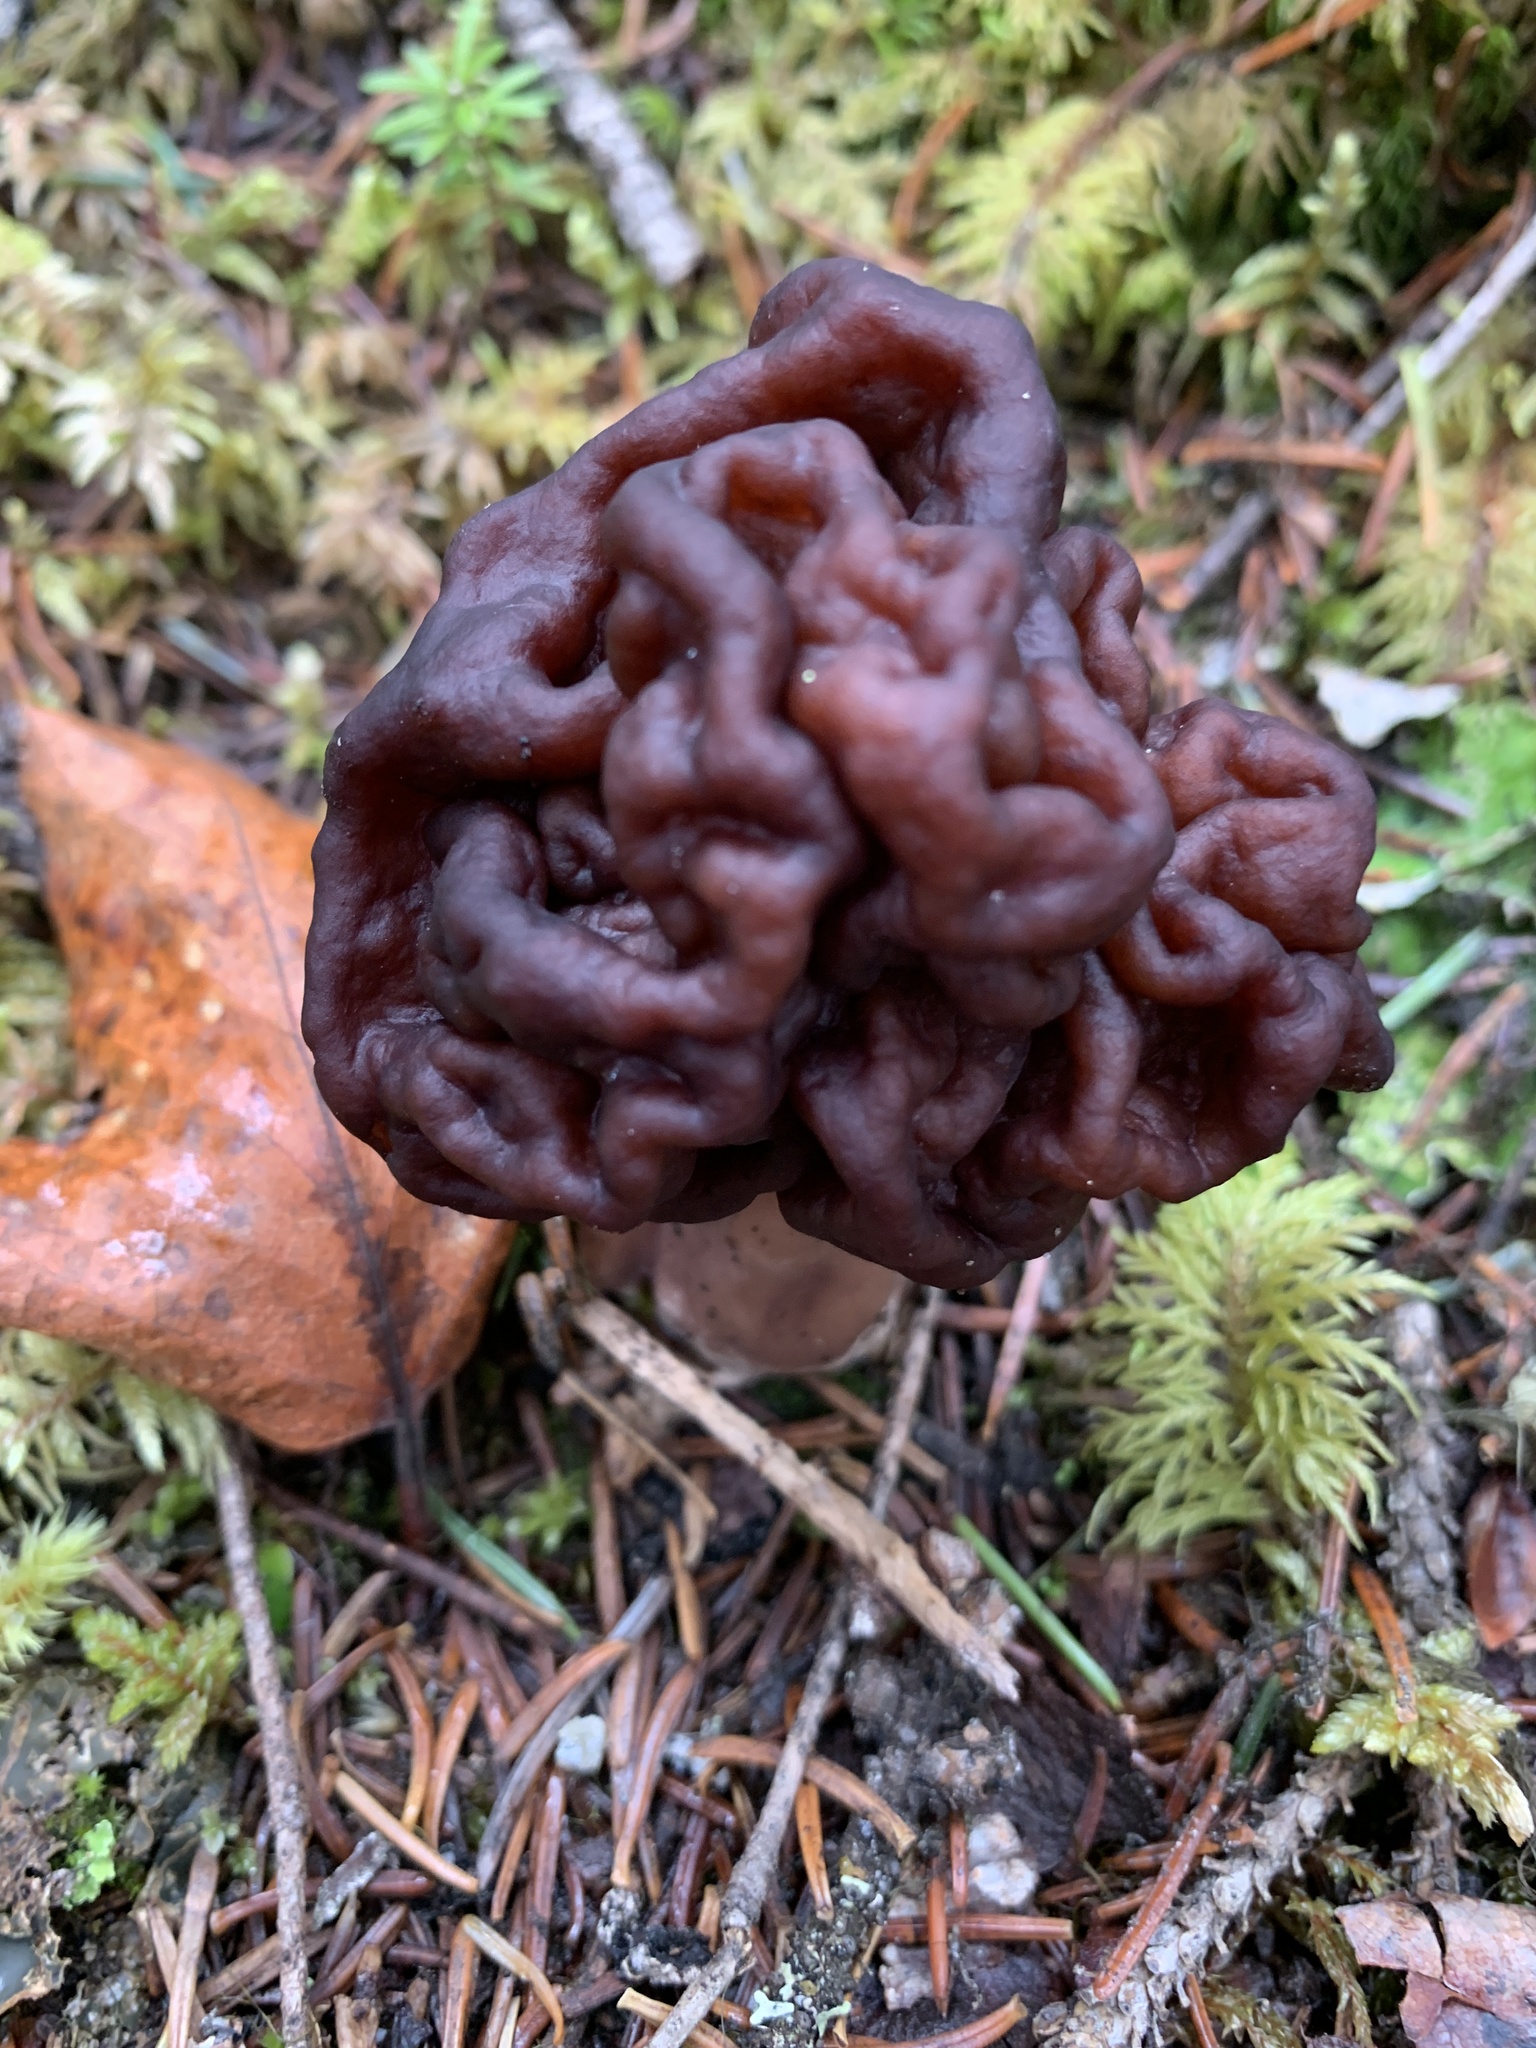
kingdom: Fungi
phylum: Ascomycota
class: Pezizomycetes
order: Pezizales
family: Discinaceae
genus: Gyromitra
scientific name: Gyromitra esculenta
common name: False morel
